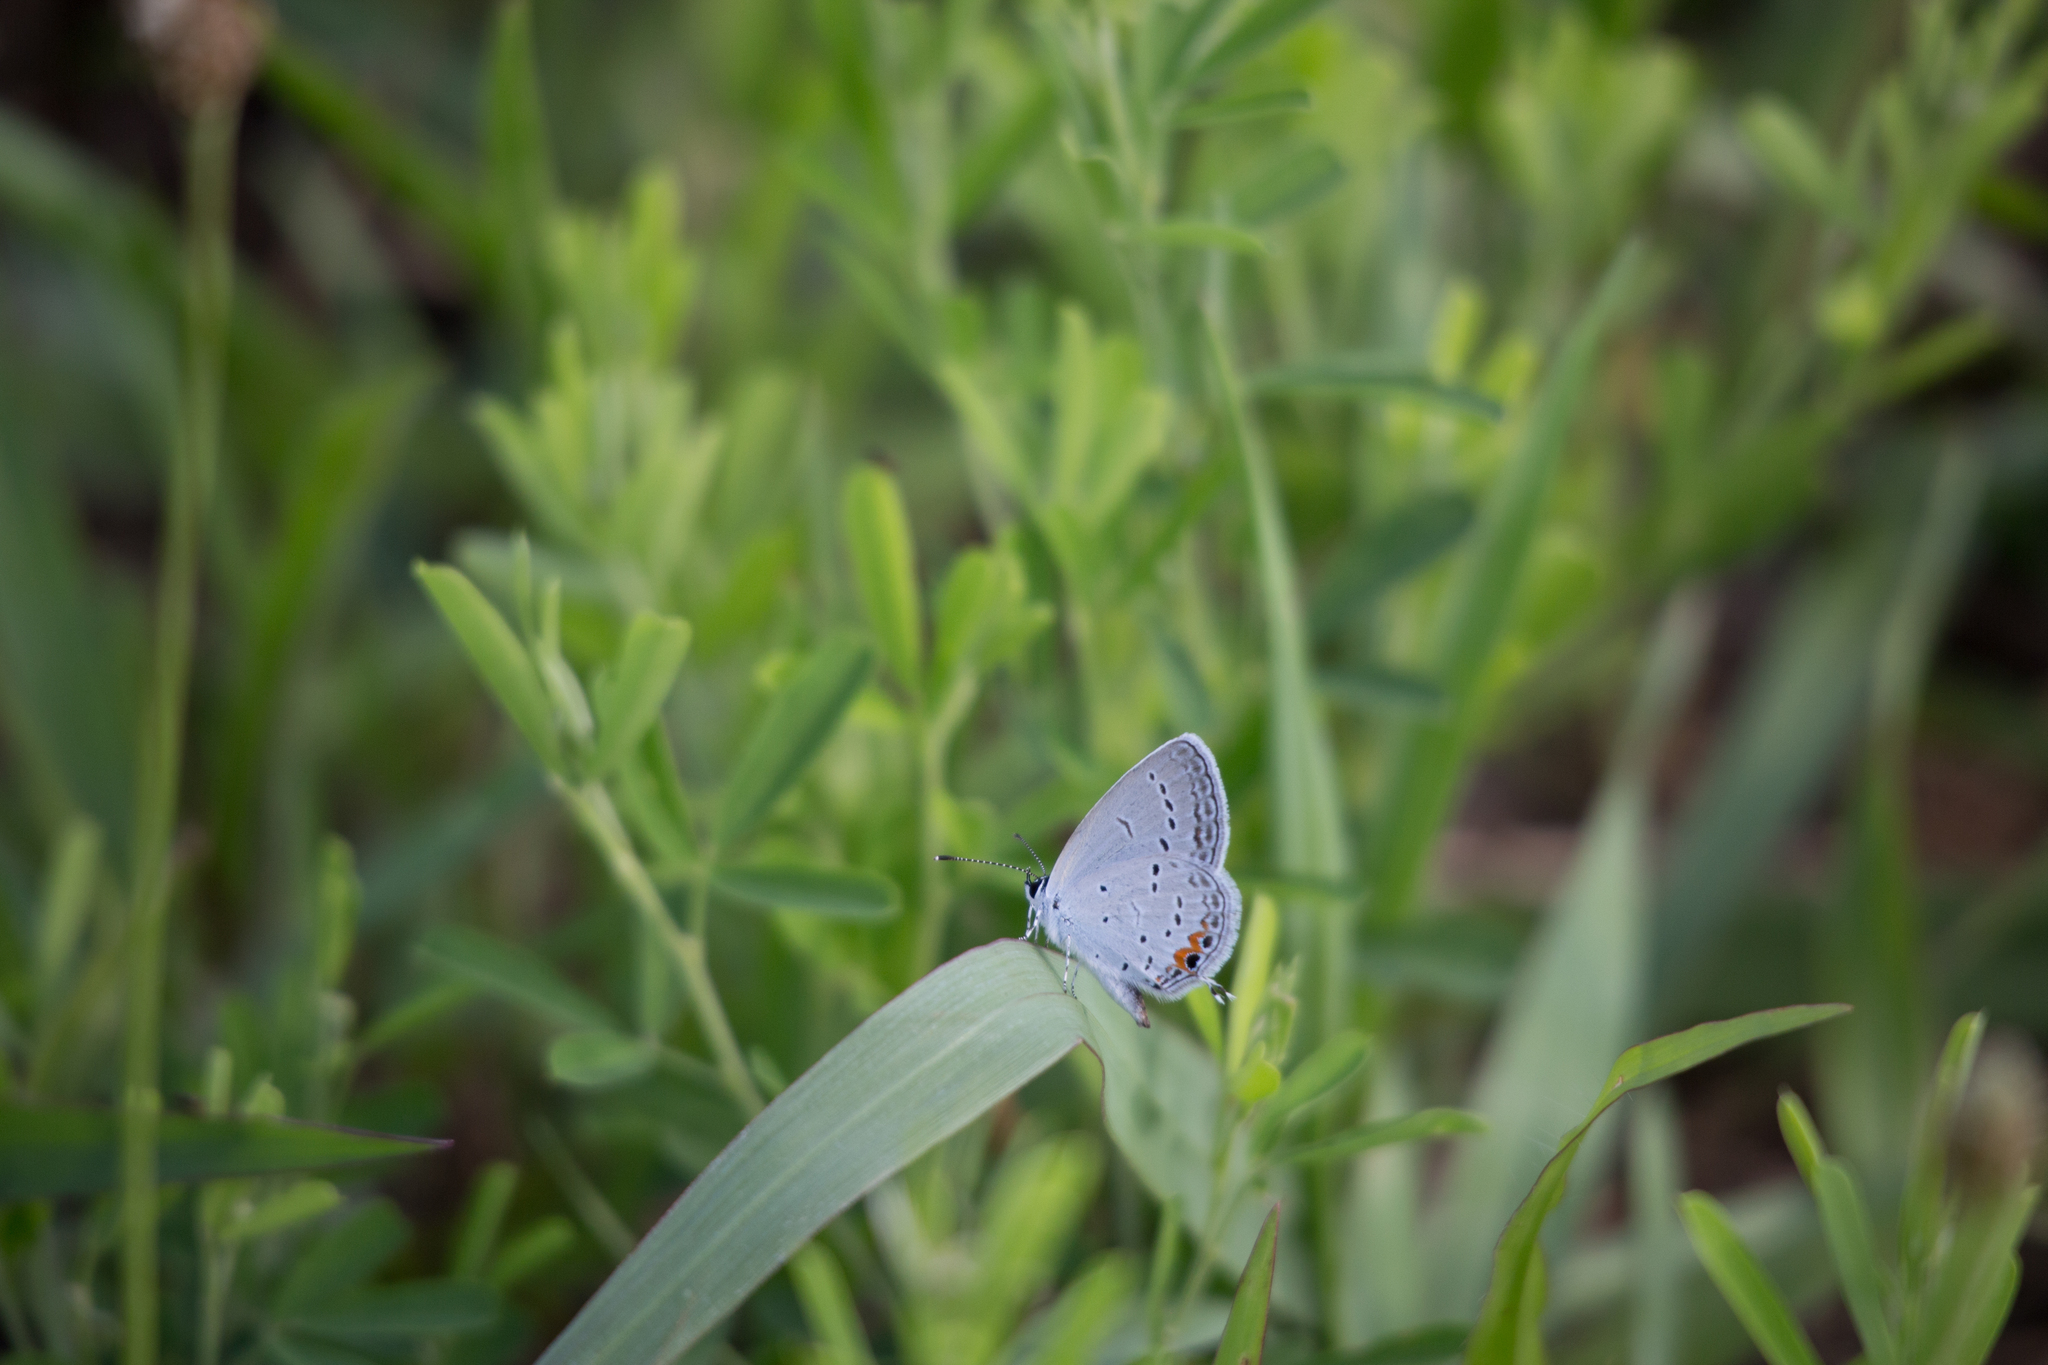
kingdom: Animalia
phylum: Arthropoda
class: Insecta
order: Lepidoptera
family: Lycaenidae
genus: Elkalyce
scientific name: Elkalyce comyntas
